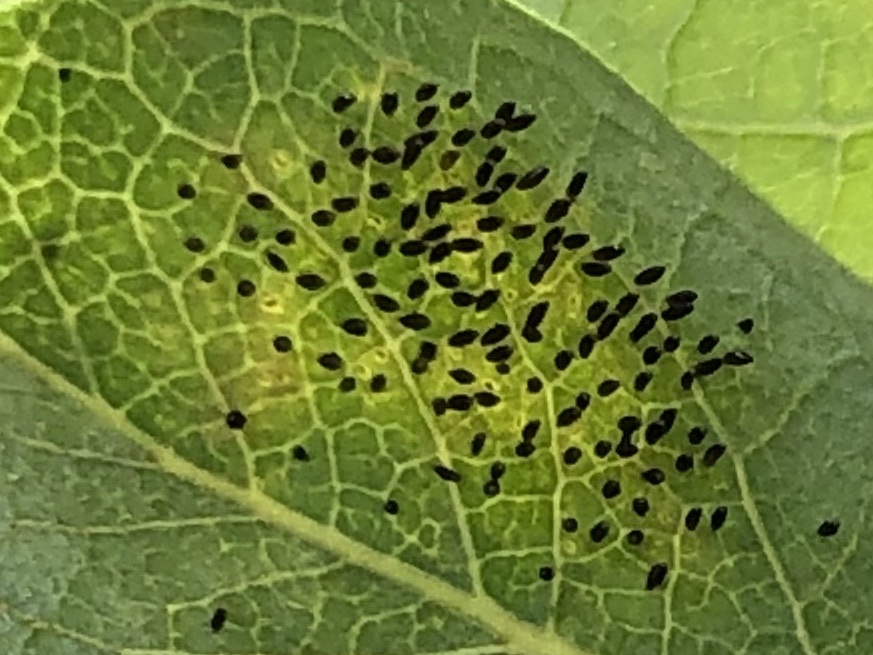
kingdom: Animalia
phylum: Arthropoda
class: Insecta
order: Coleoptera
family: Chrysomelidae
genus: Plagiodera
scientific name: Plagiodera versicolora
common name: Imported willow leaf beetle
